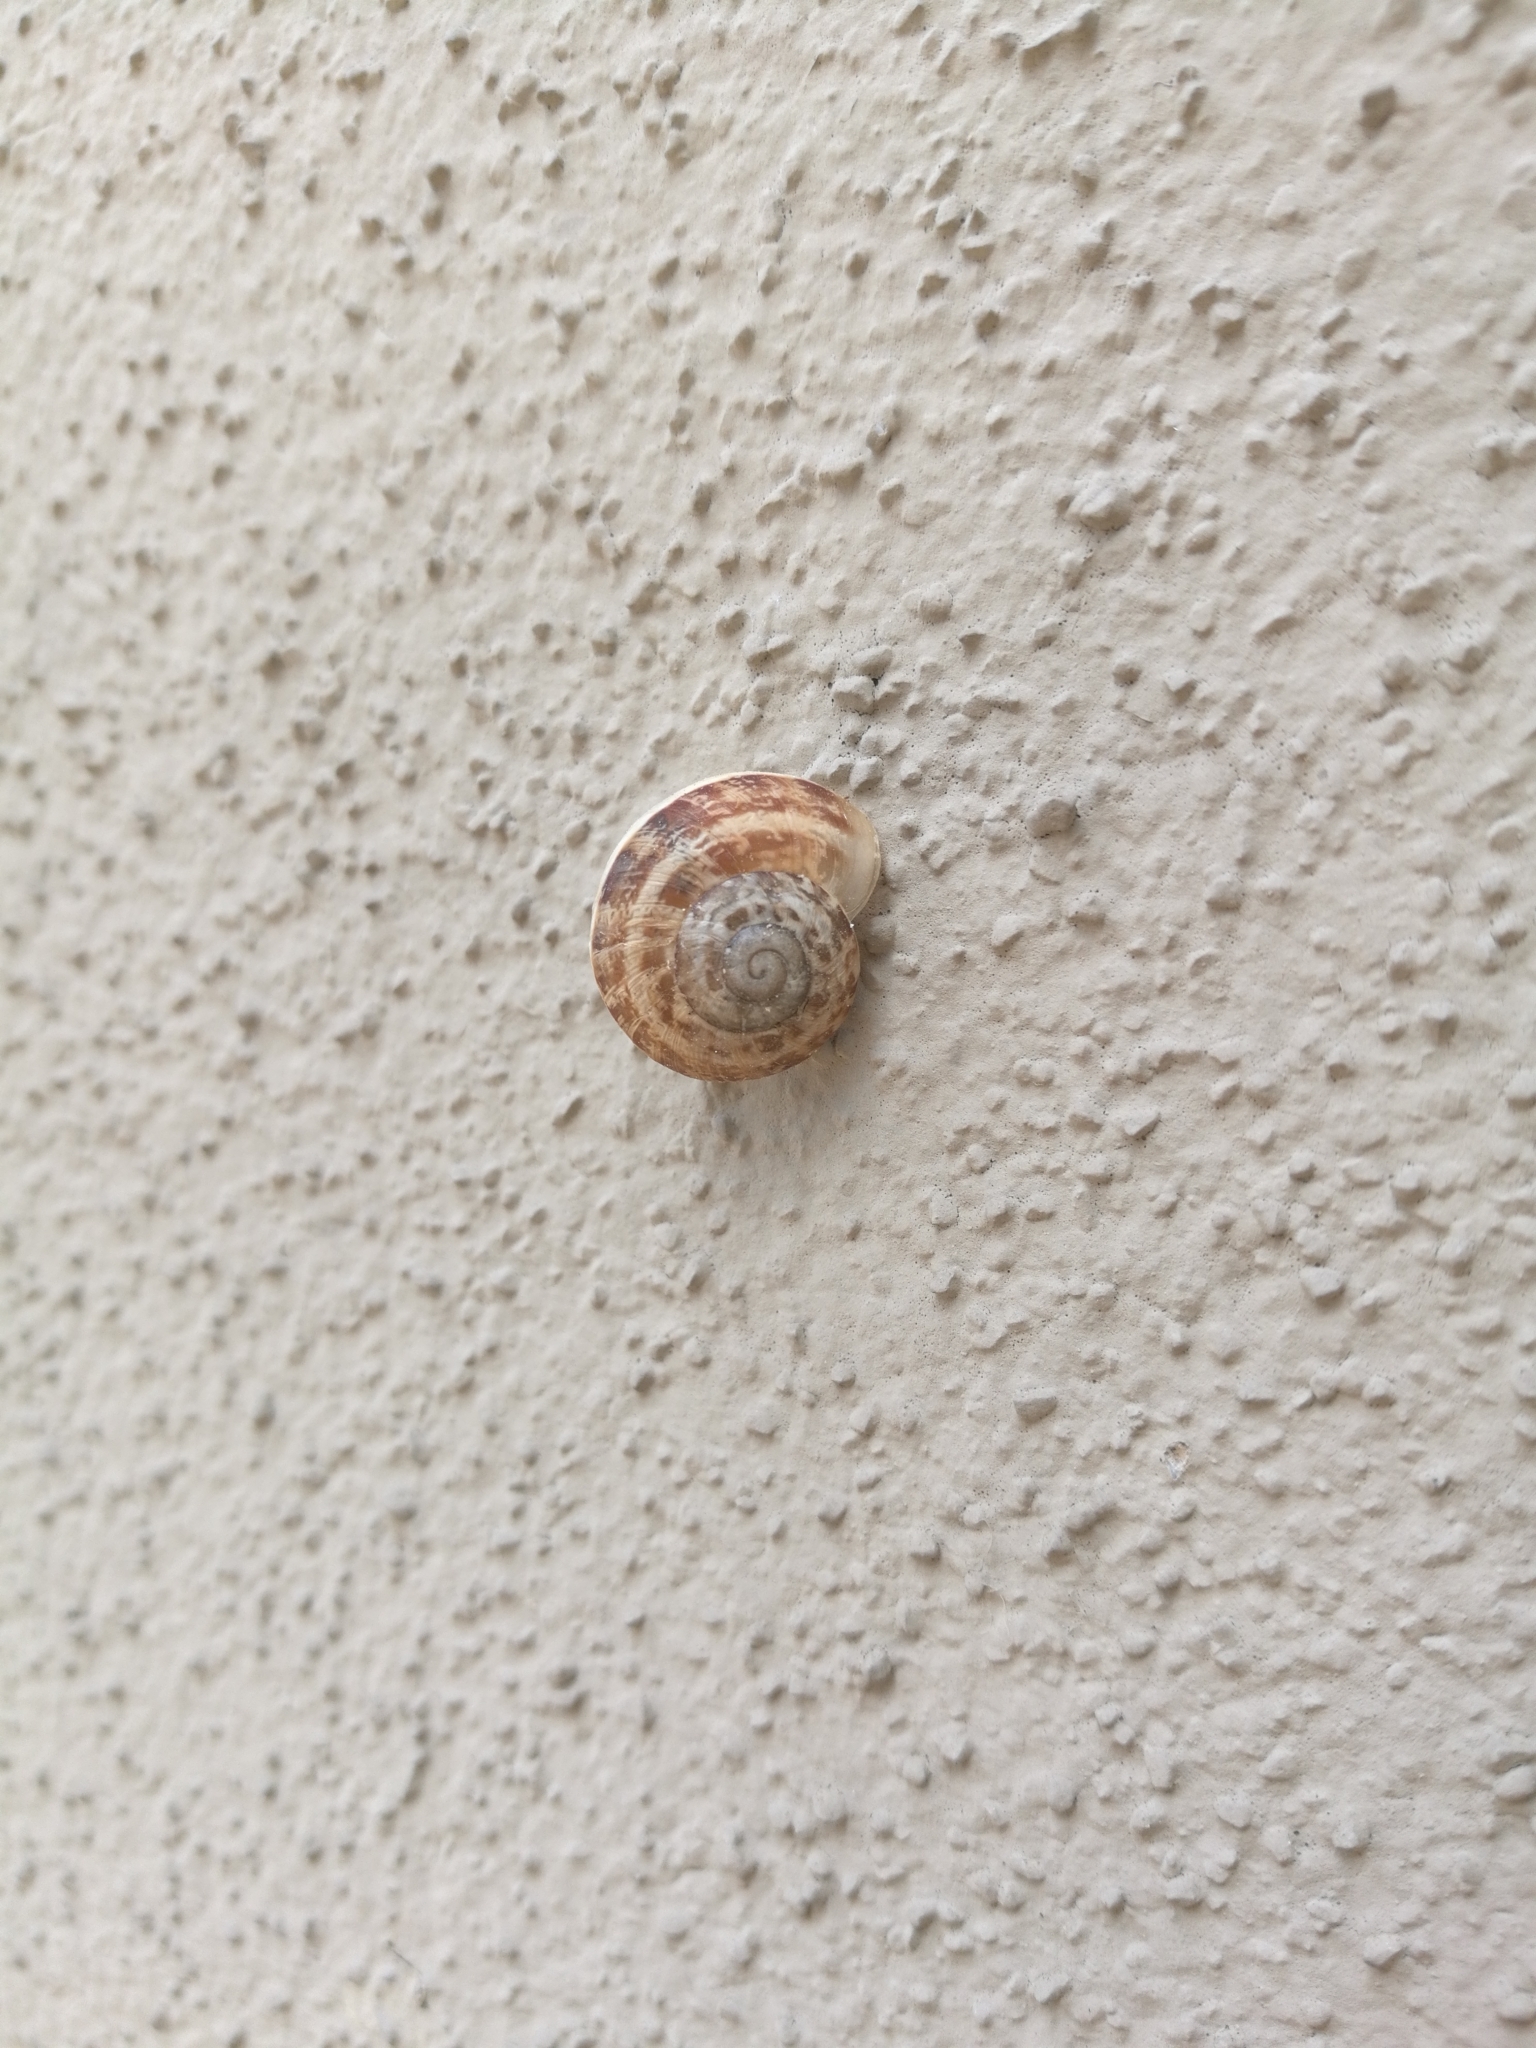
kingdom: Animalia
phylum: Mollusca
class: Gastropoda
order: Stylommatophora
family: Helicidae
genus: Eobania
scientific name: Eobania vermiculata
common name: Chocolateband snail
